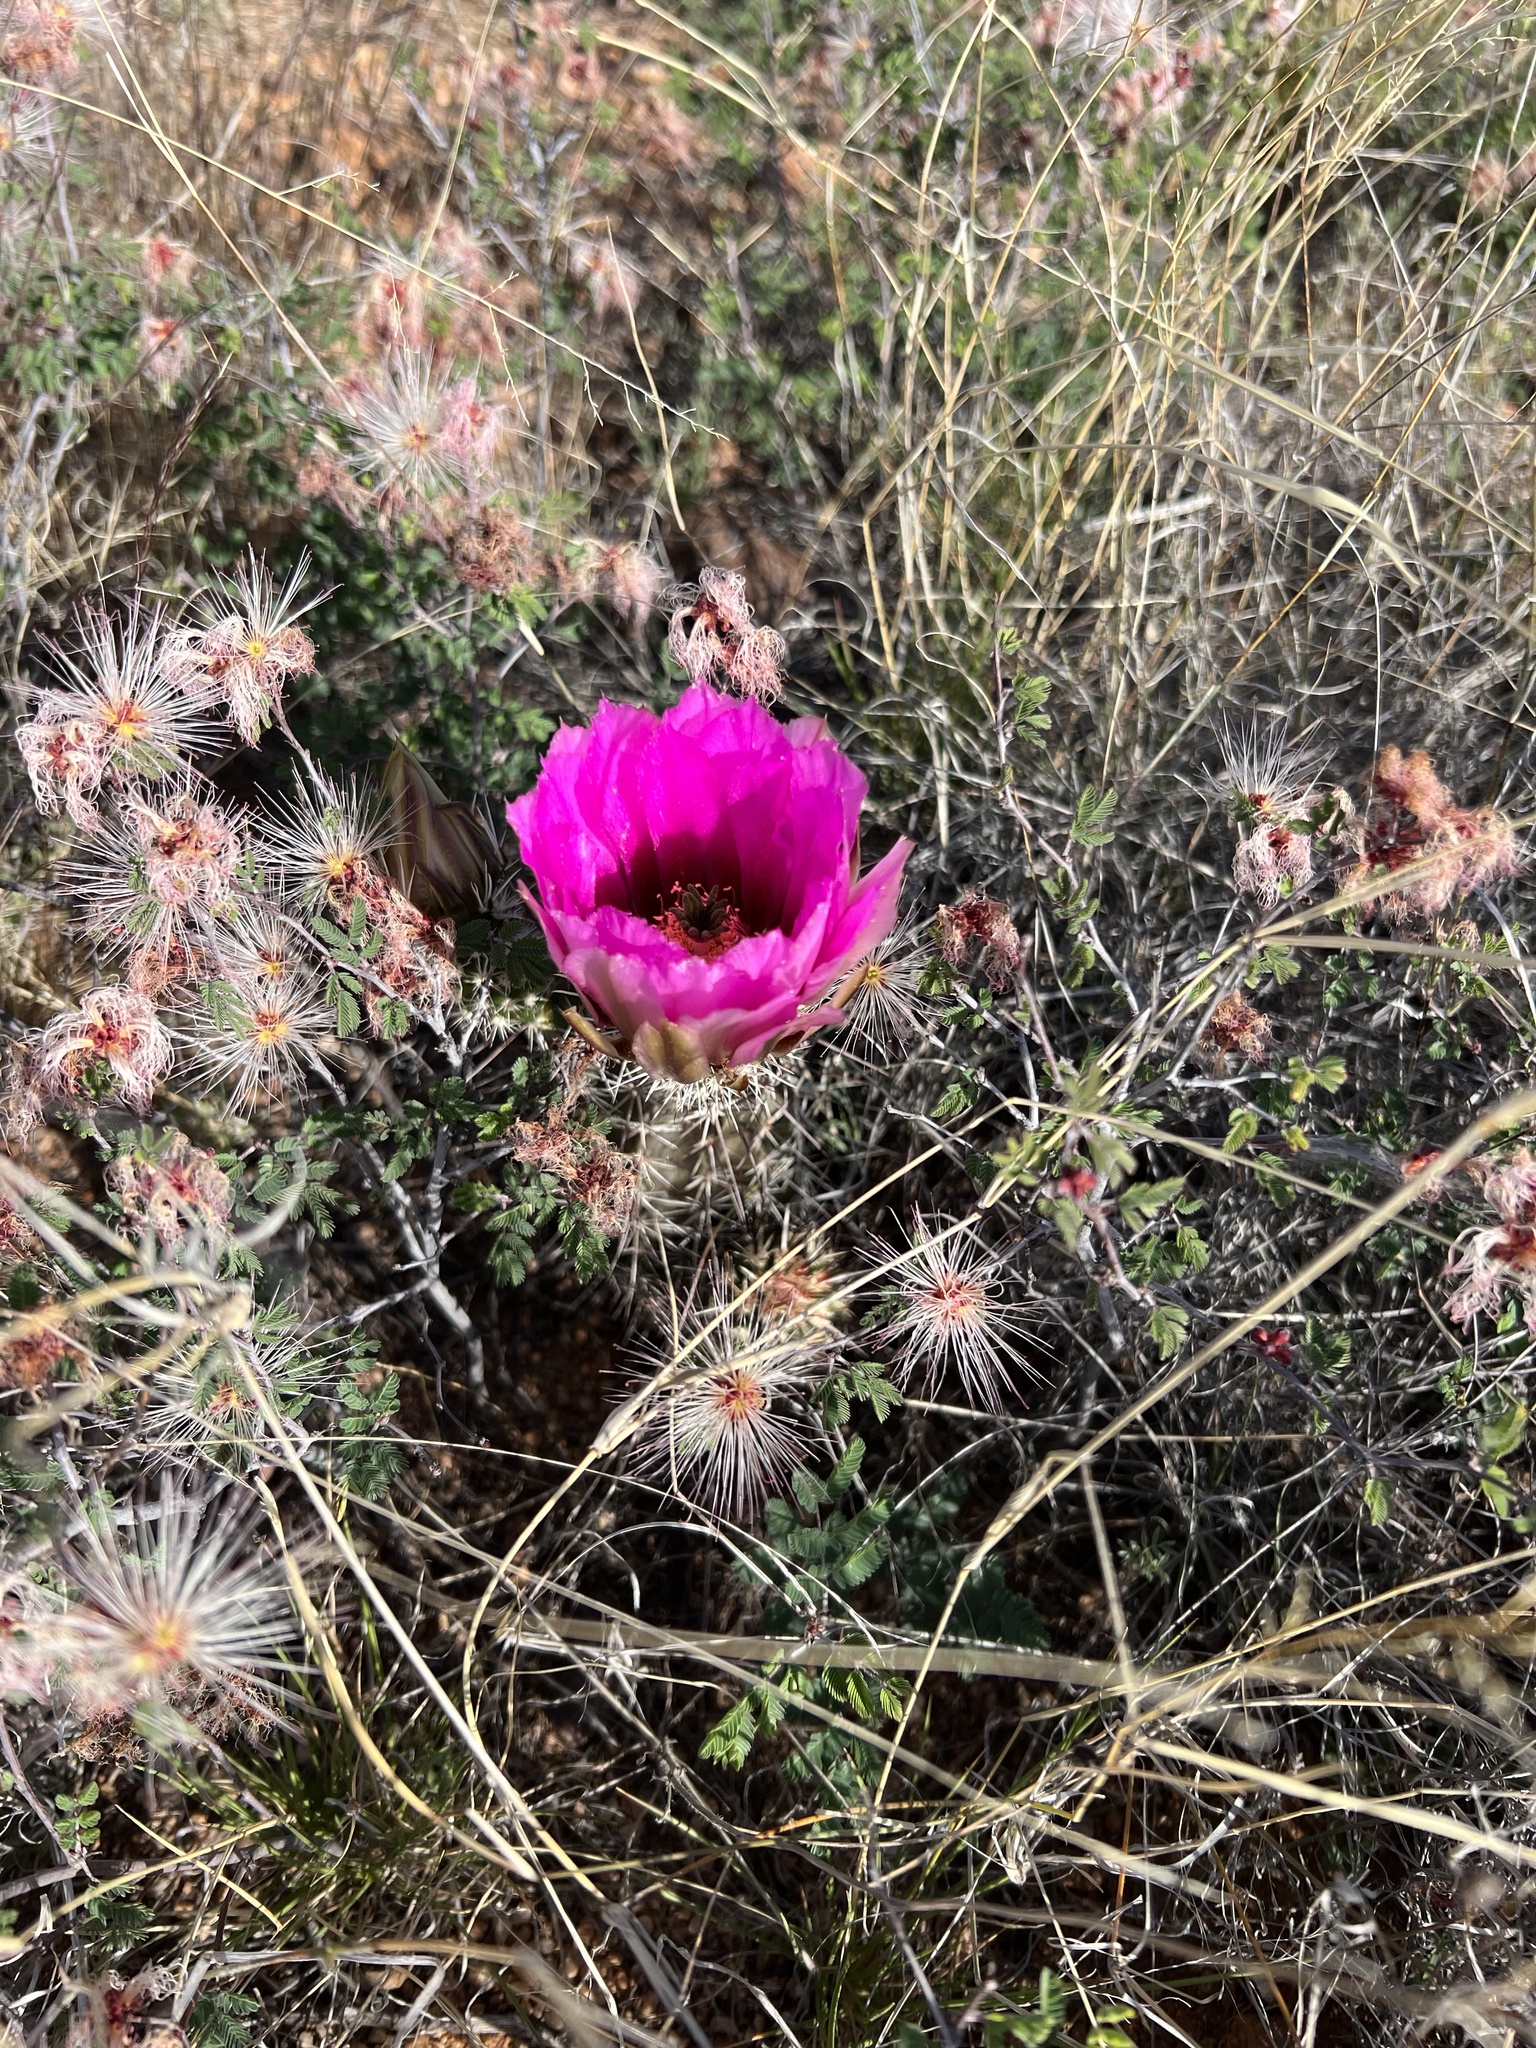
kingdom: Plantae
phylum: Tracheophyta
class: Magnoliopsida
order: Caryophyllales
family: Cactaceae
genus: Echinocereus
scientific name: Echinocereus fasciculatus
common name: Bundle hedgehog
